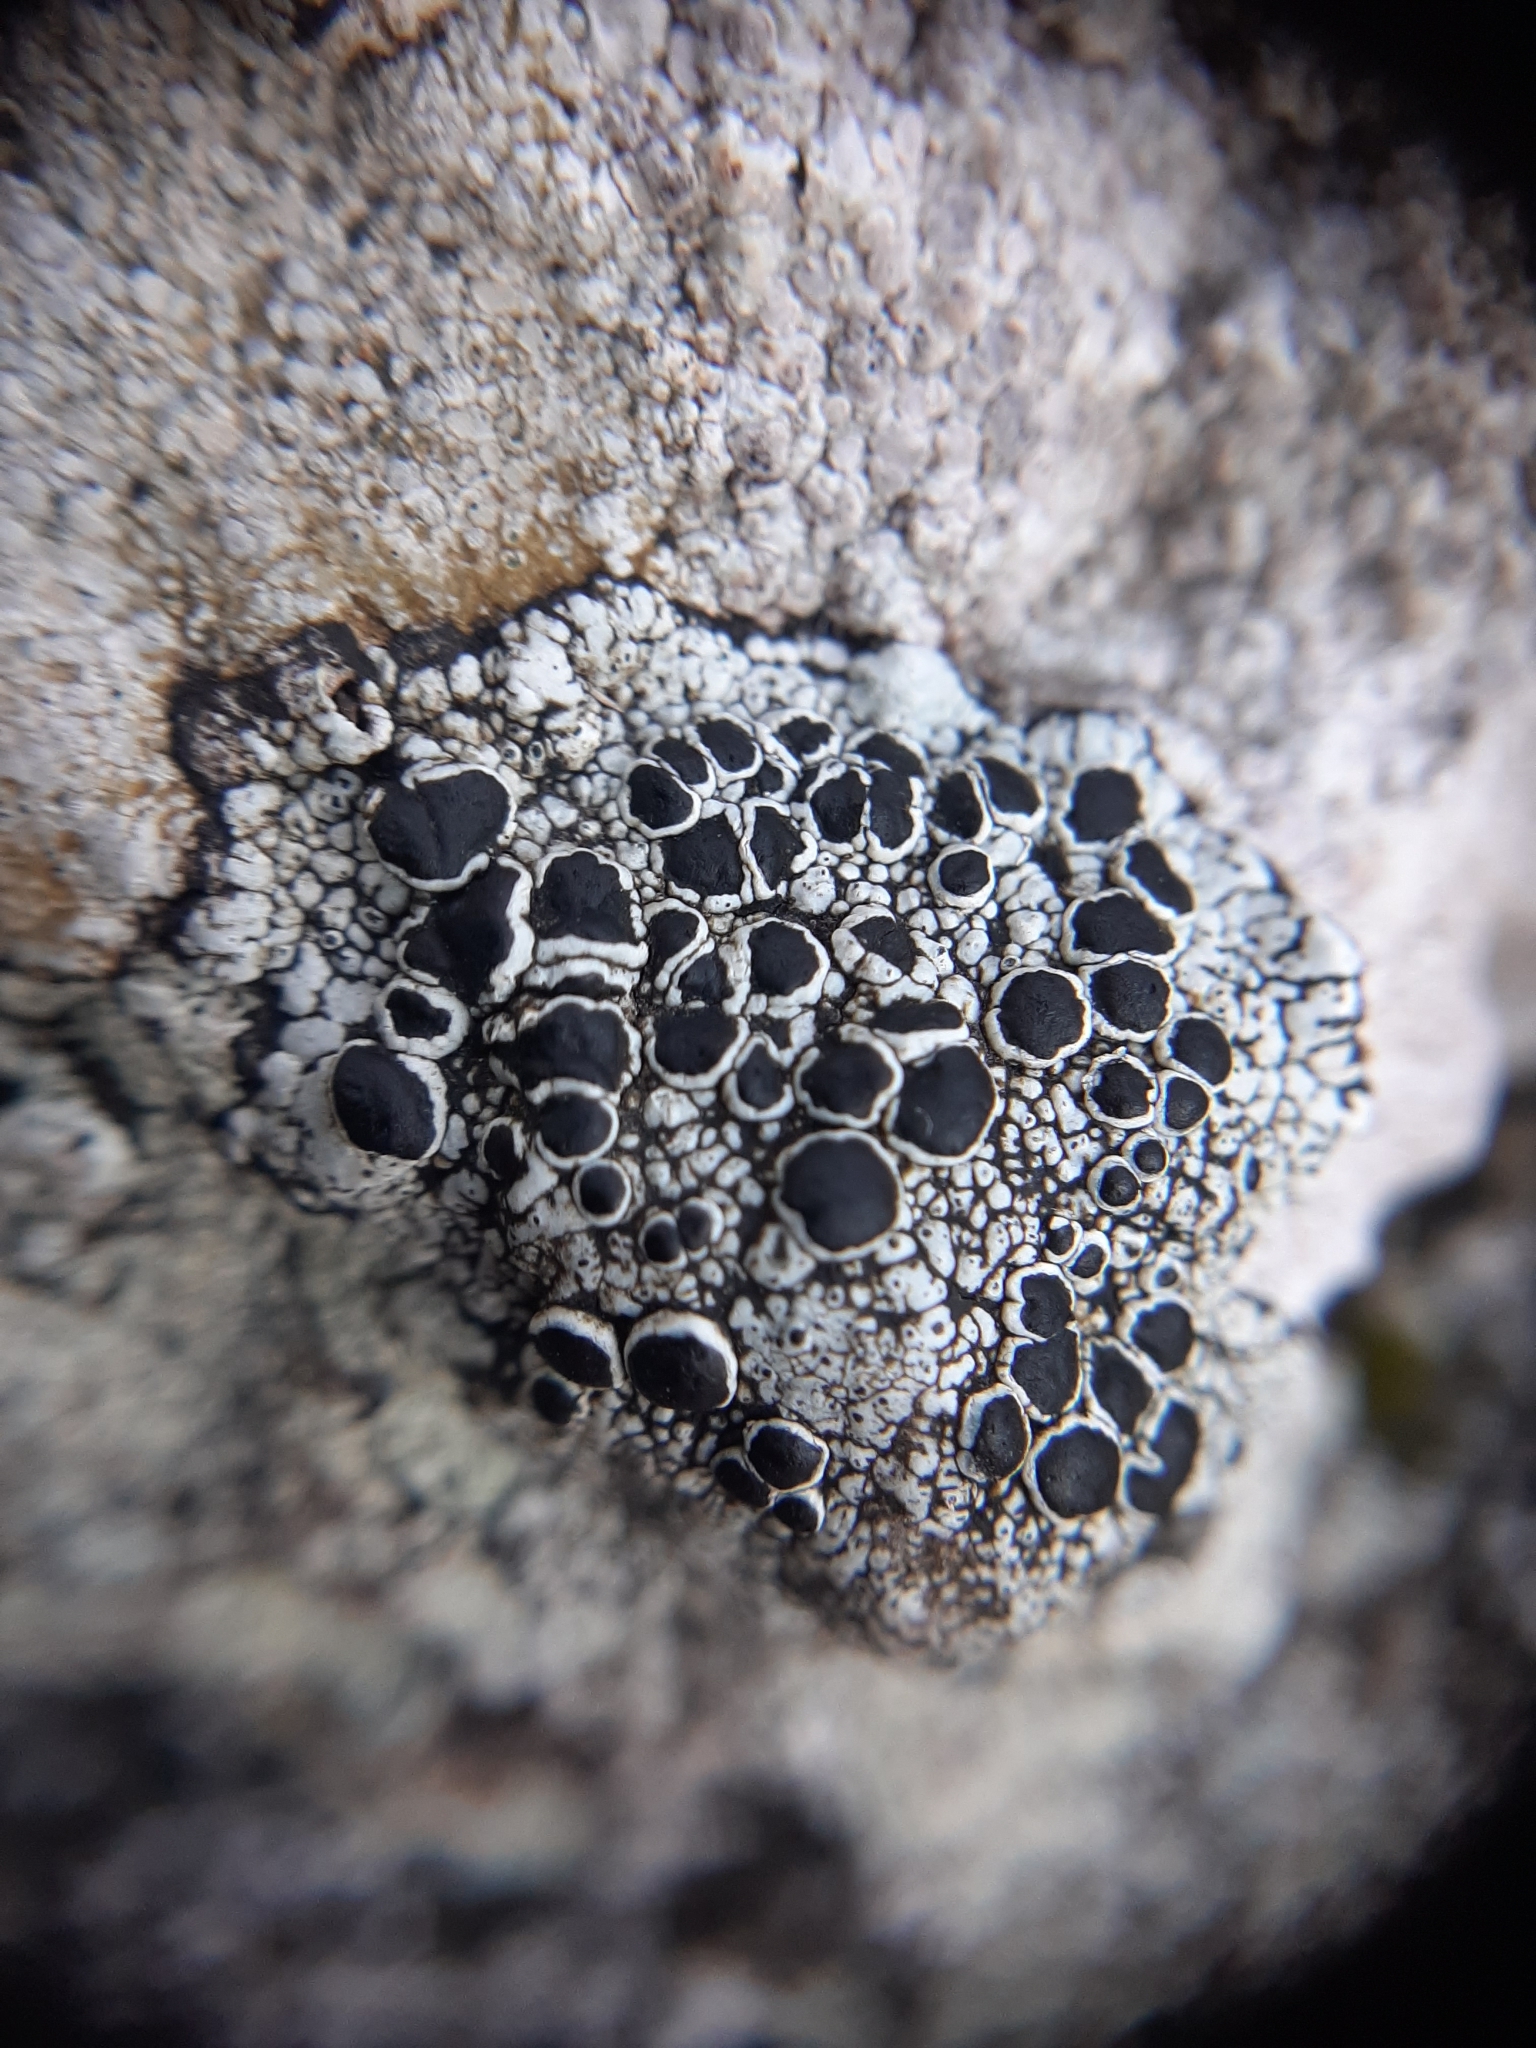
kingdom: Fungi
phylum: Ascomycota
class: Lecanoromycetes
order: Lecanorales
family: Tephromelataceae
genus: Tephromela
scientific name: Tephromela atra
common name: Black shields
